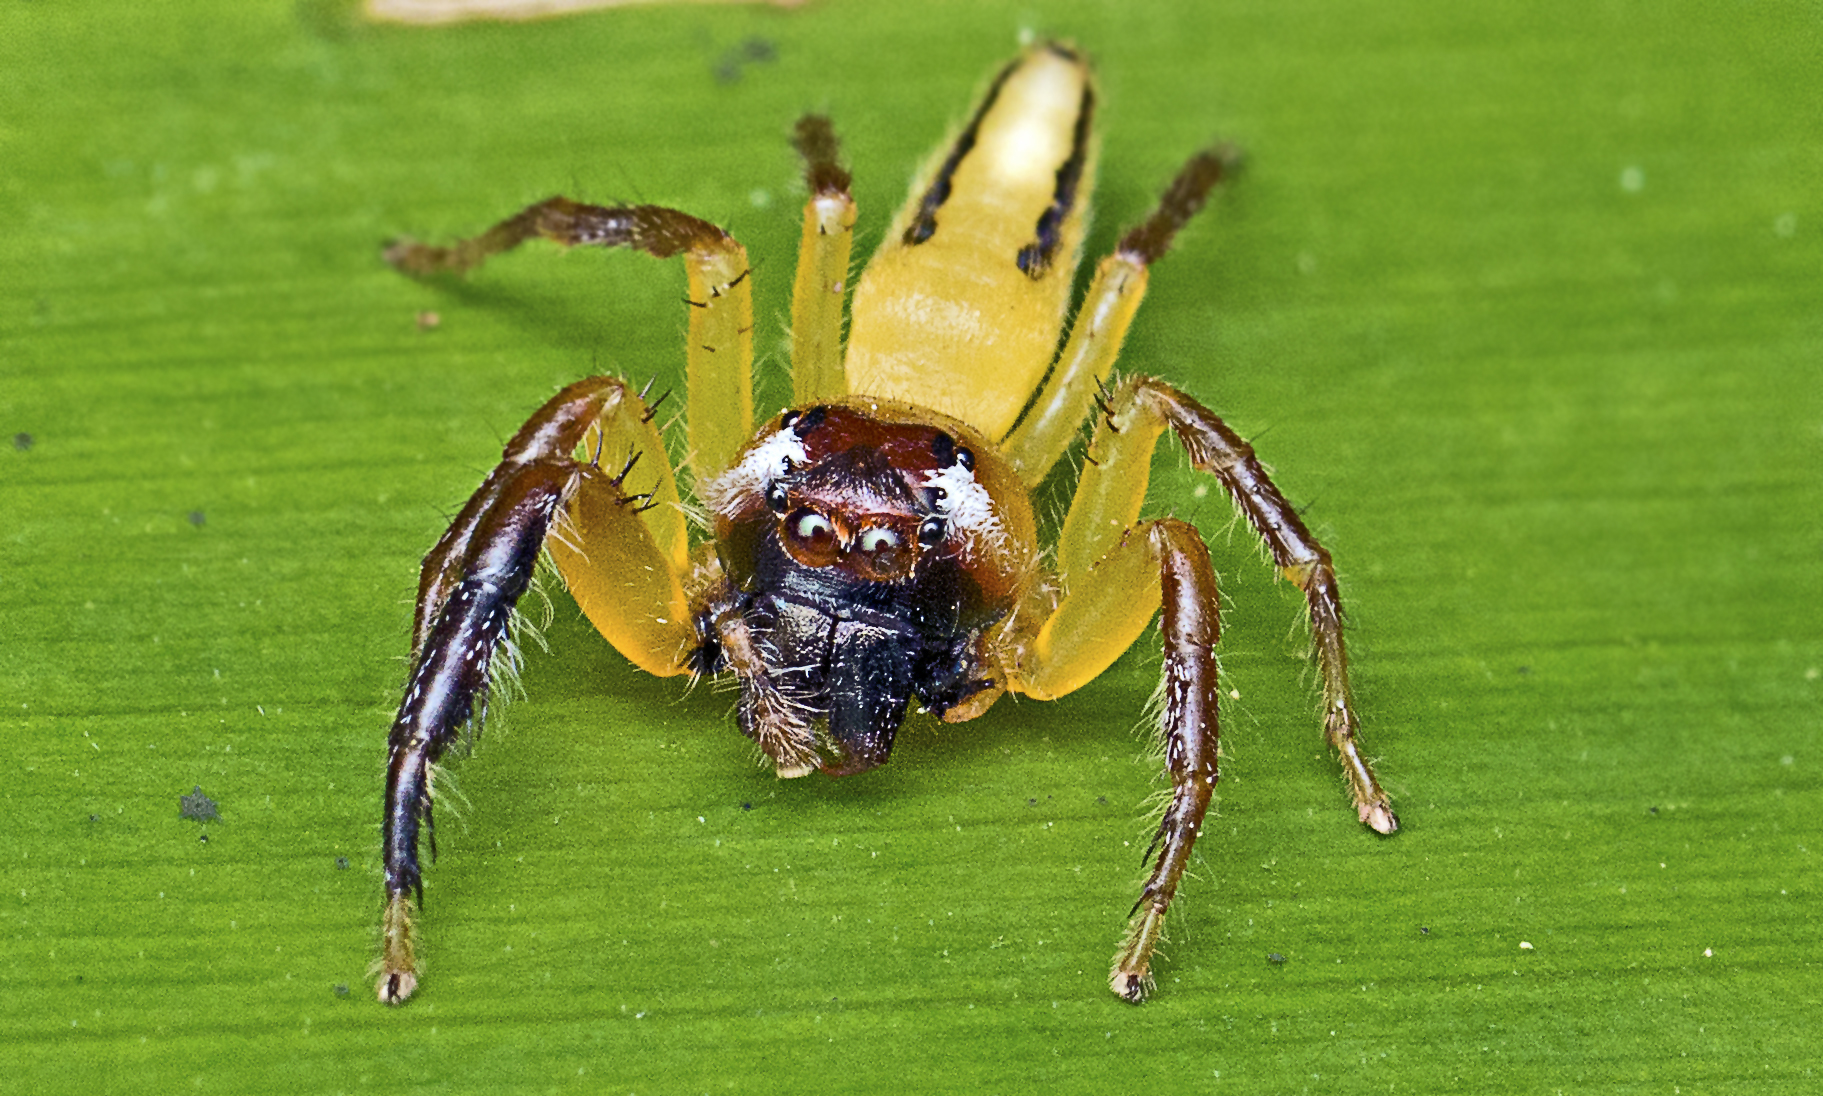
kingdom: Animalia
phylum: Arthropoda
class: Arachnida
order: Araneae
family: Salticidae
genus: Mopsus
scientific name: Mopsus mormon
